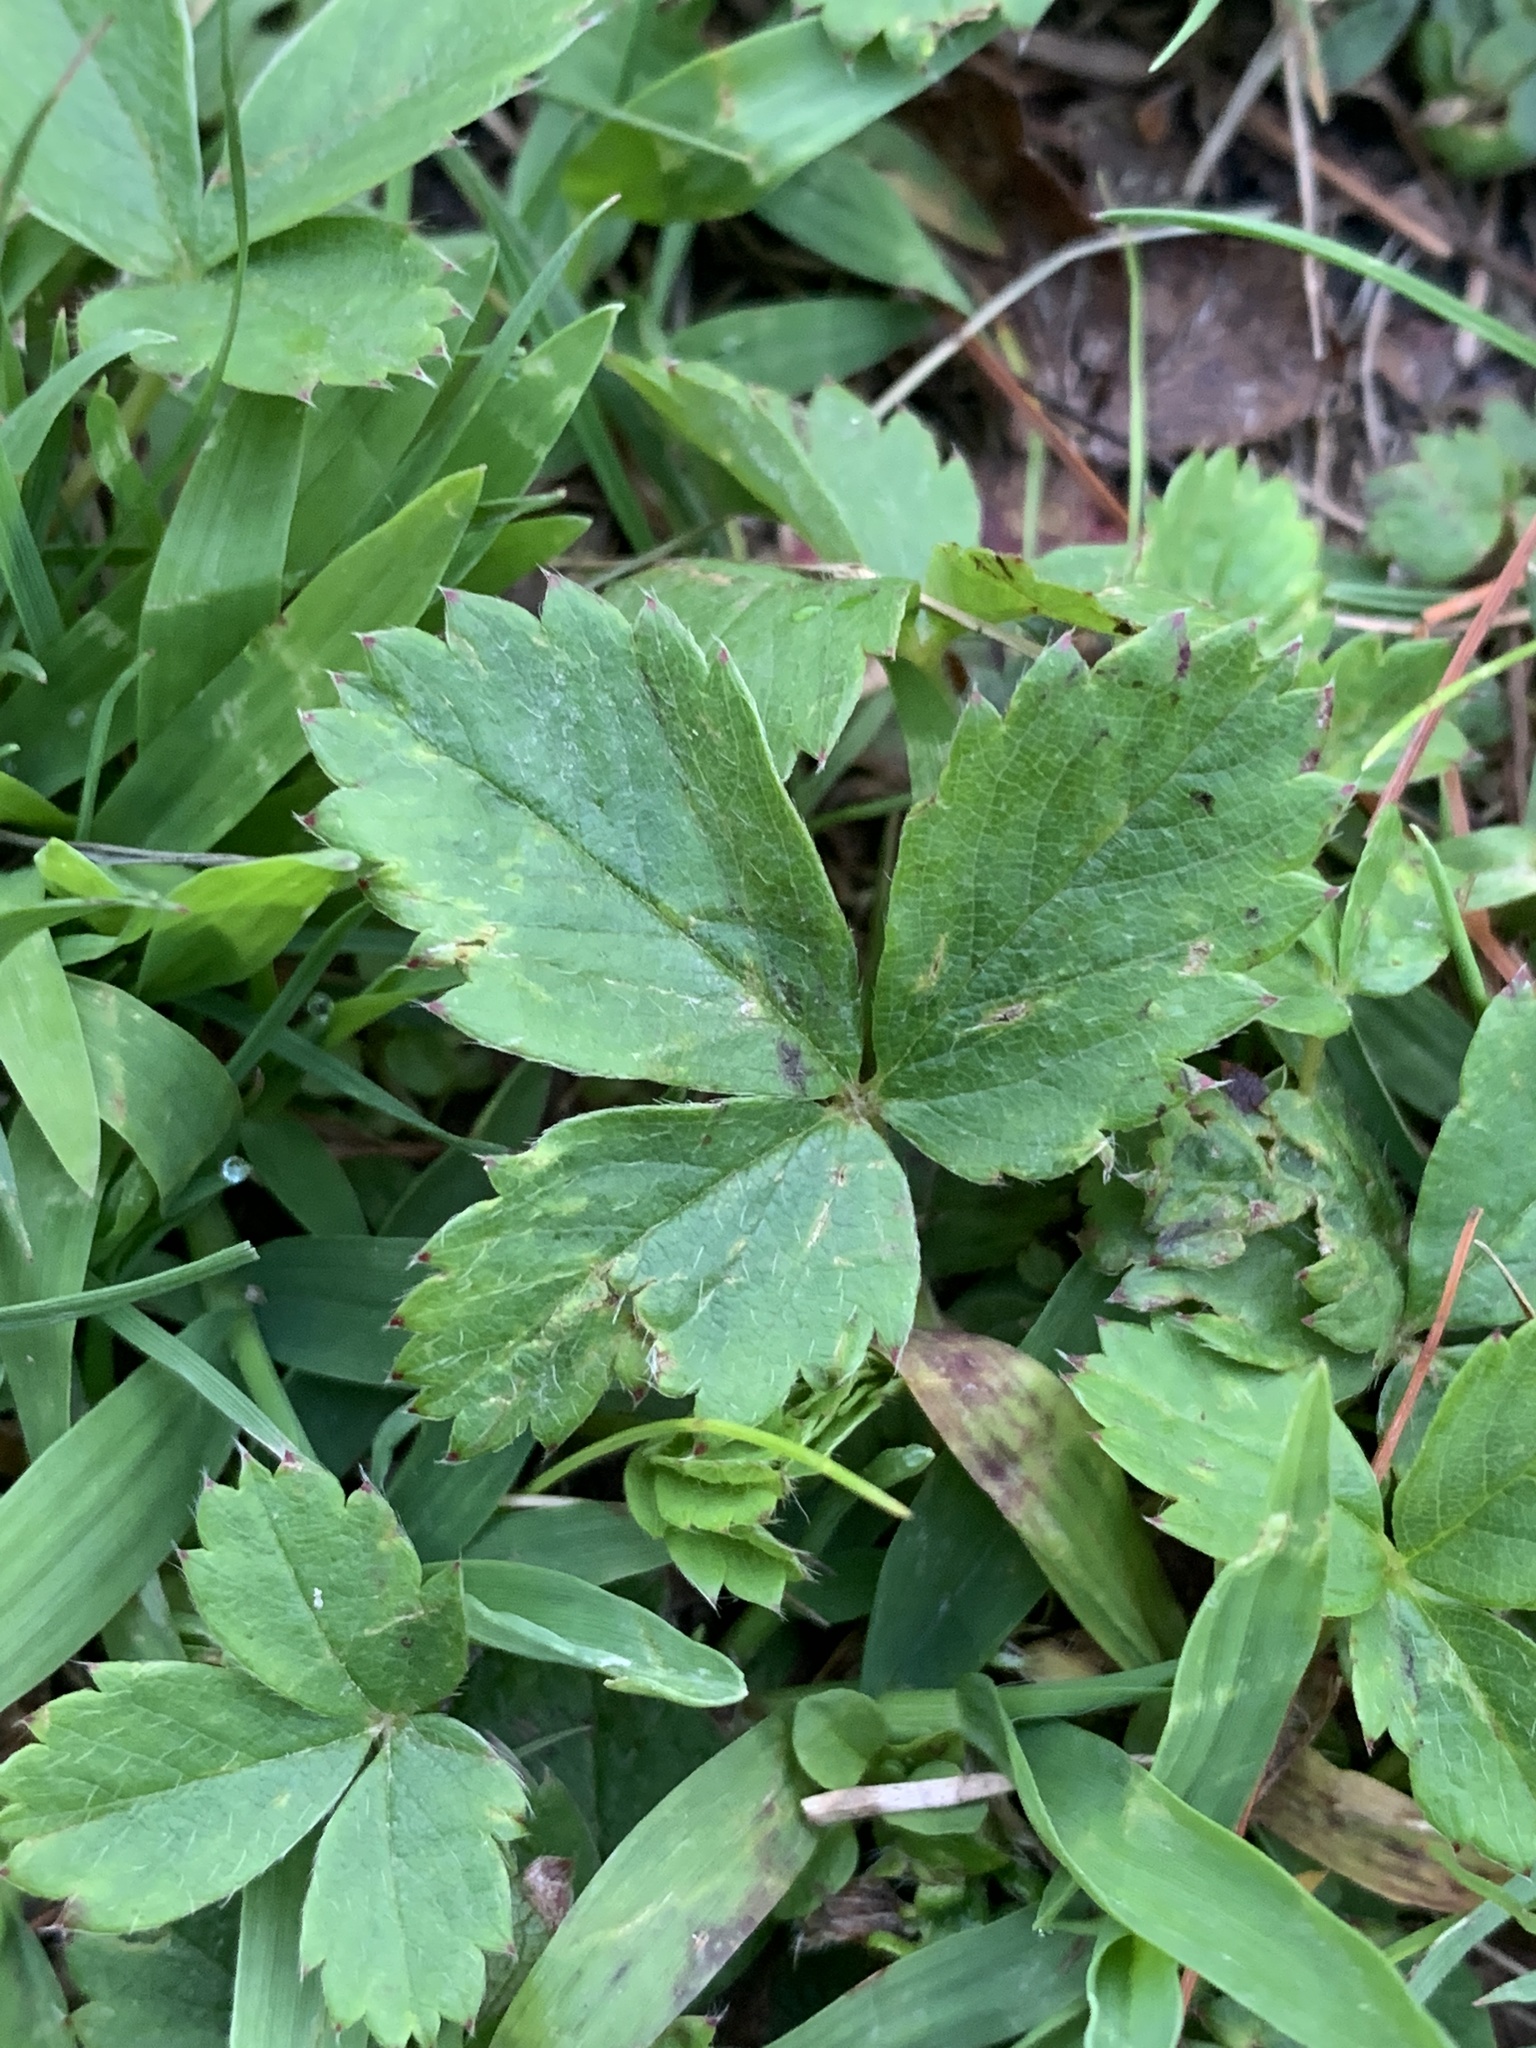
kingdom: Plantae
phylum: Tracheophyta
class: Magnoliopsida
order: Rosales
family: Rosaceae
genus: Fragaria
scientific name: Fragaria virginiana
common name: Thickleaved wild strawberry
